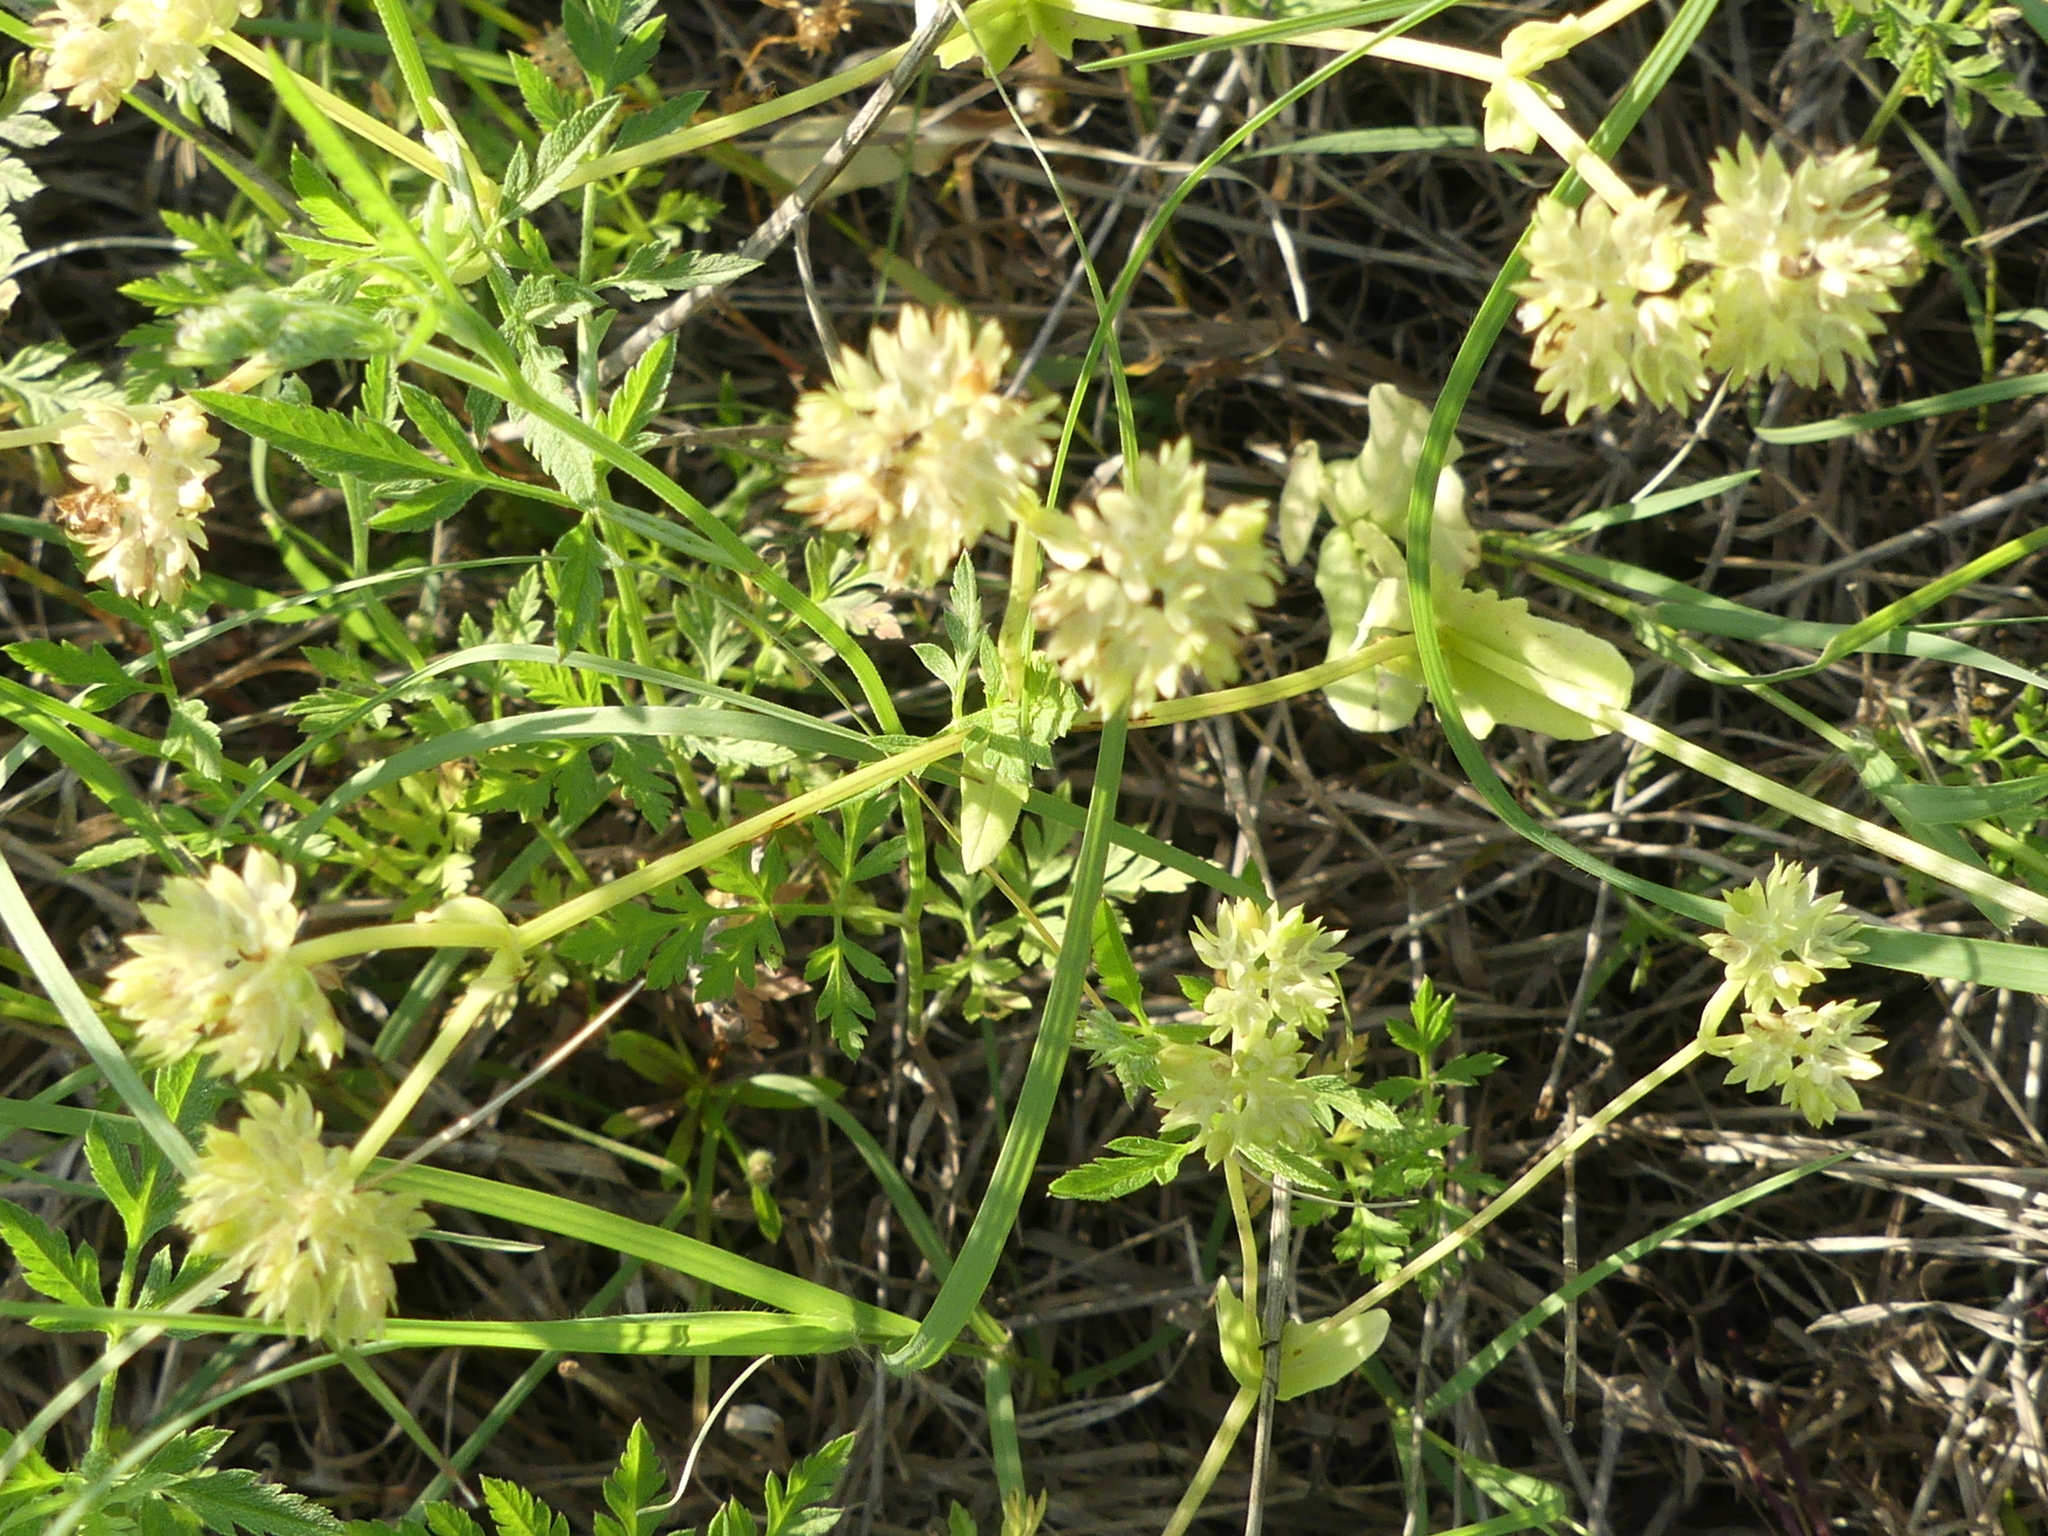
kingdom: Plantae
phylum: Tracheophyta
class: Magnoliopsida
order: Dipsacales
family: Caprifoliaceae
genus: Valerianella
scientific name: Valerianella radiata
